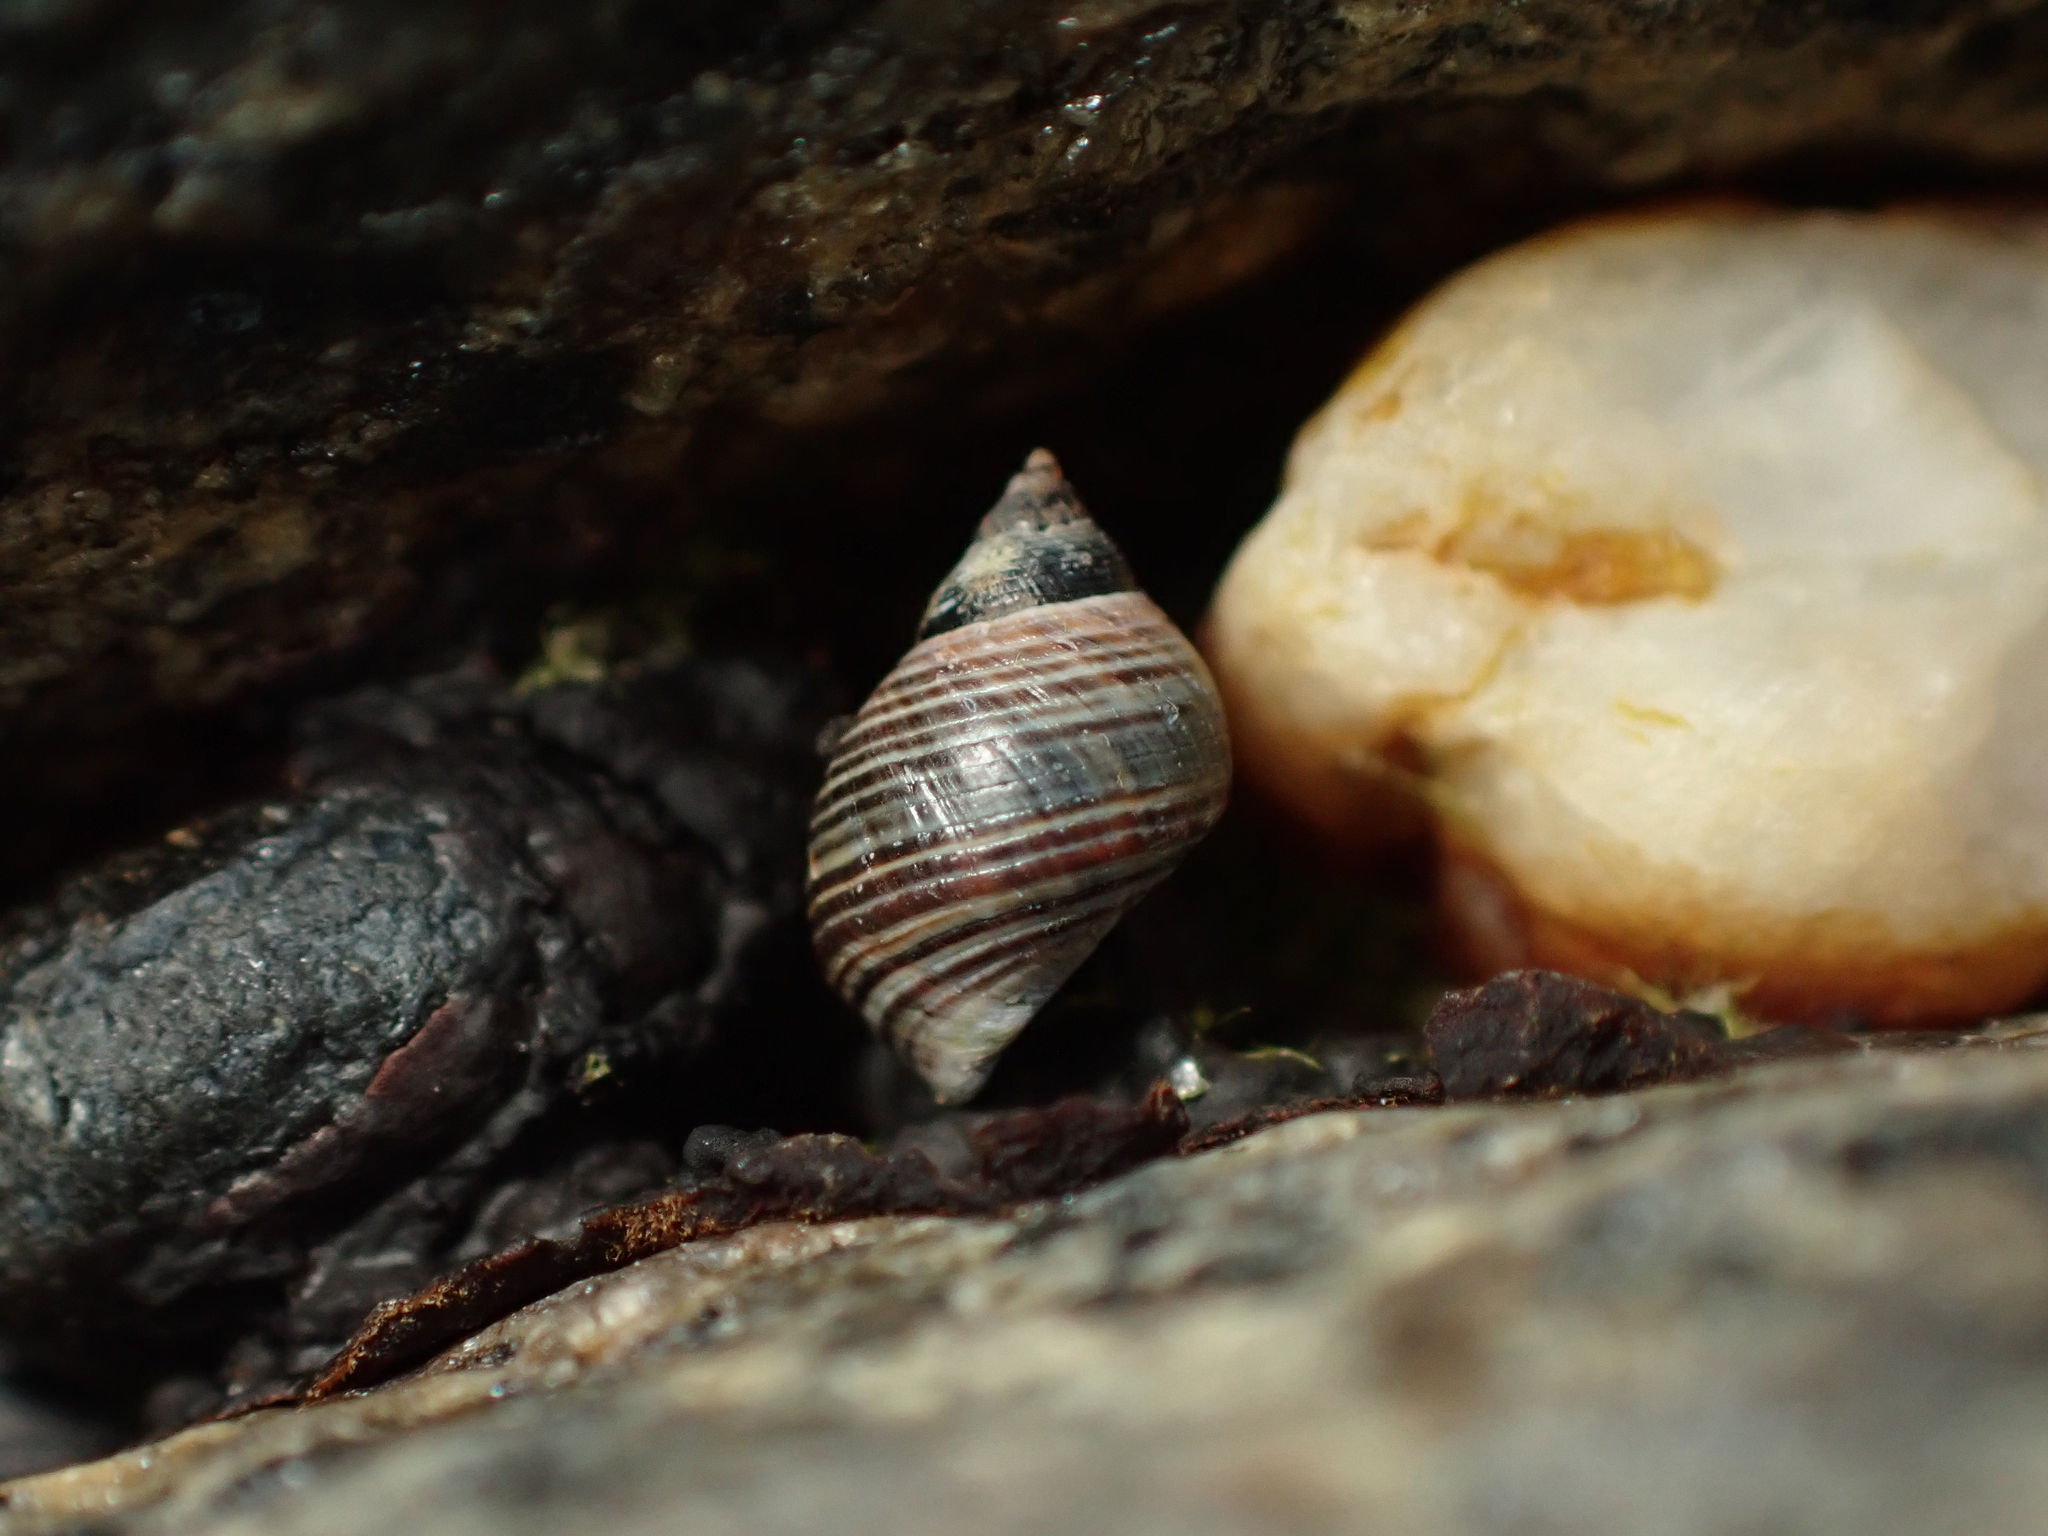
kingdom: Animalia
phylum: Mollusca
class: Gastropoda
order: Littorinimorpha
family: Littorinidae
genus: Austrolittorina
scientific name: Austrolittorina cincta
